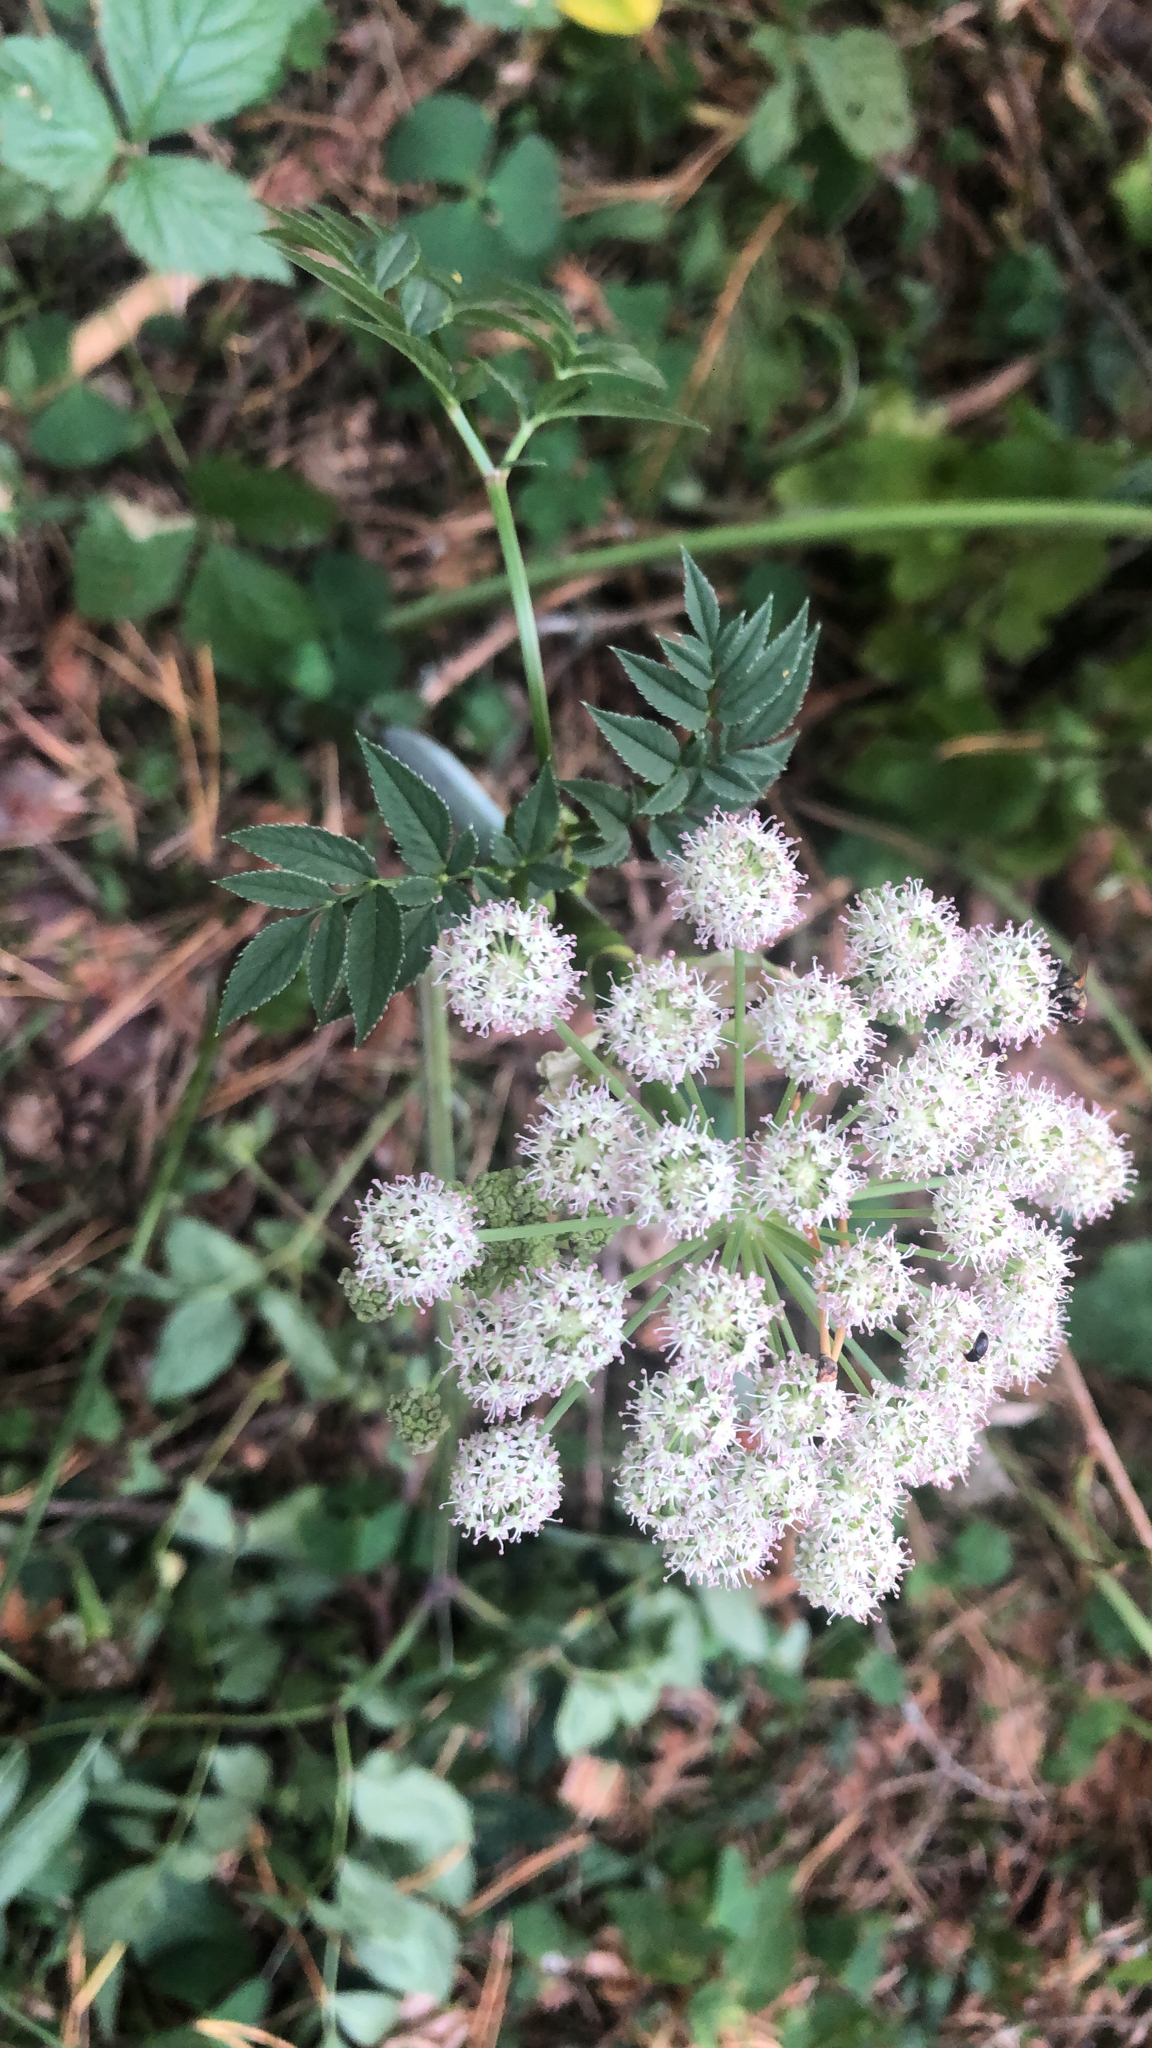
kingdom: Plantae
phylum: Tracheophyta
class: Magnoliopsida
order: Apiales
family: Apiaceae
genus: Angelica
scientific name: Angelica sylvestris
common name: Wild angelica
